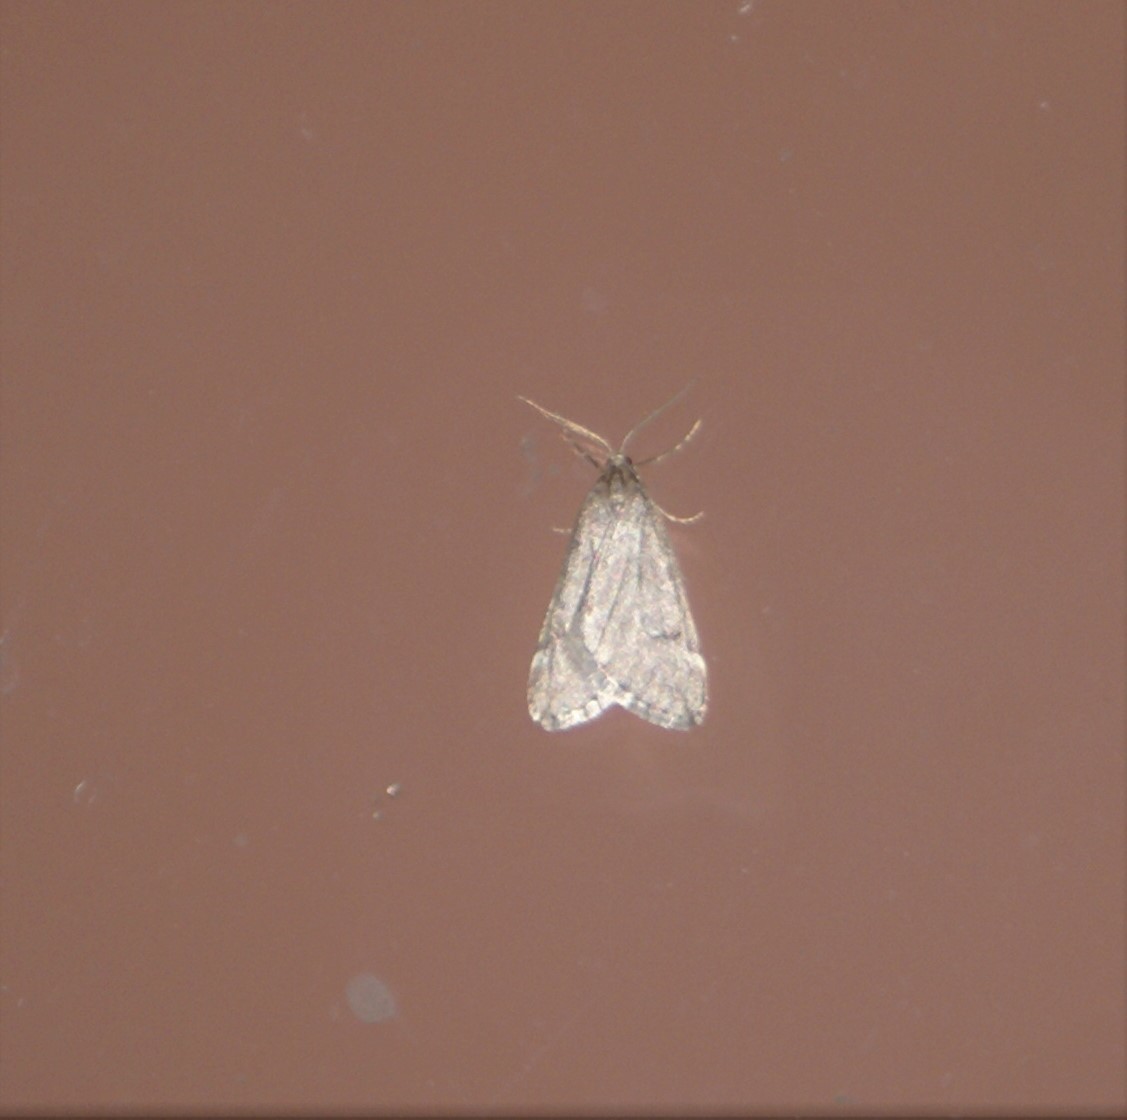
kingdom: Animalia
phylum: Arthropoda
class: Insecta
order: Lepidoptera
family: Geometridae
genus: Alsophila
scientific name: Alsophila pometaria
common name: Fall cankerworm
